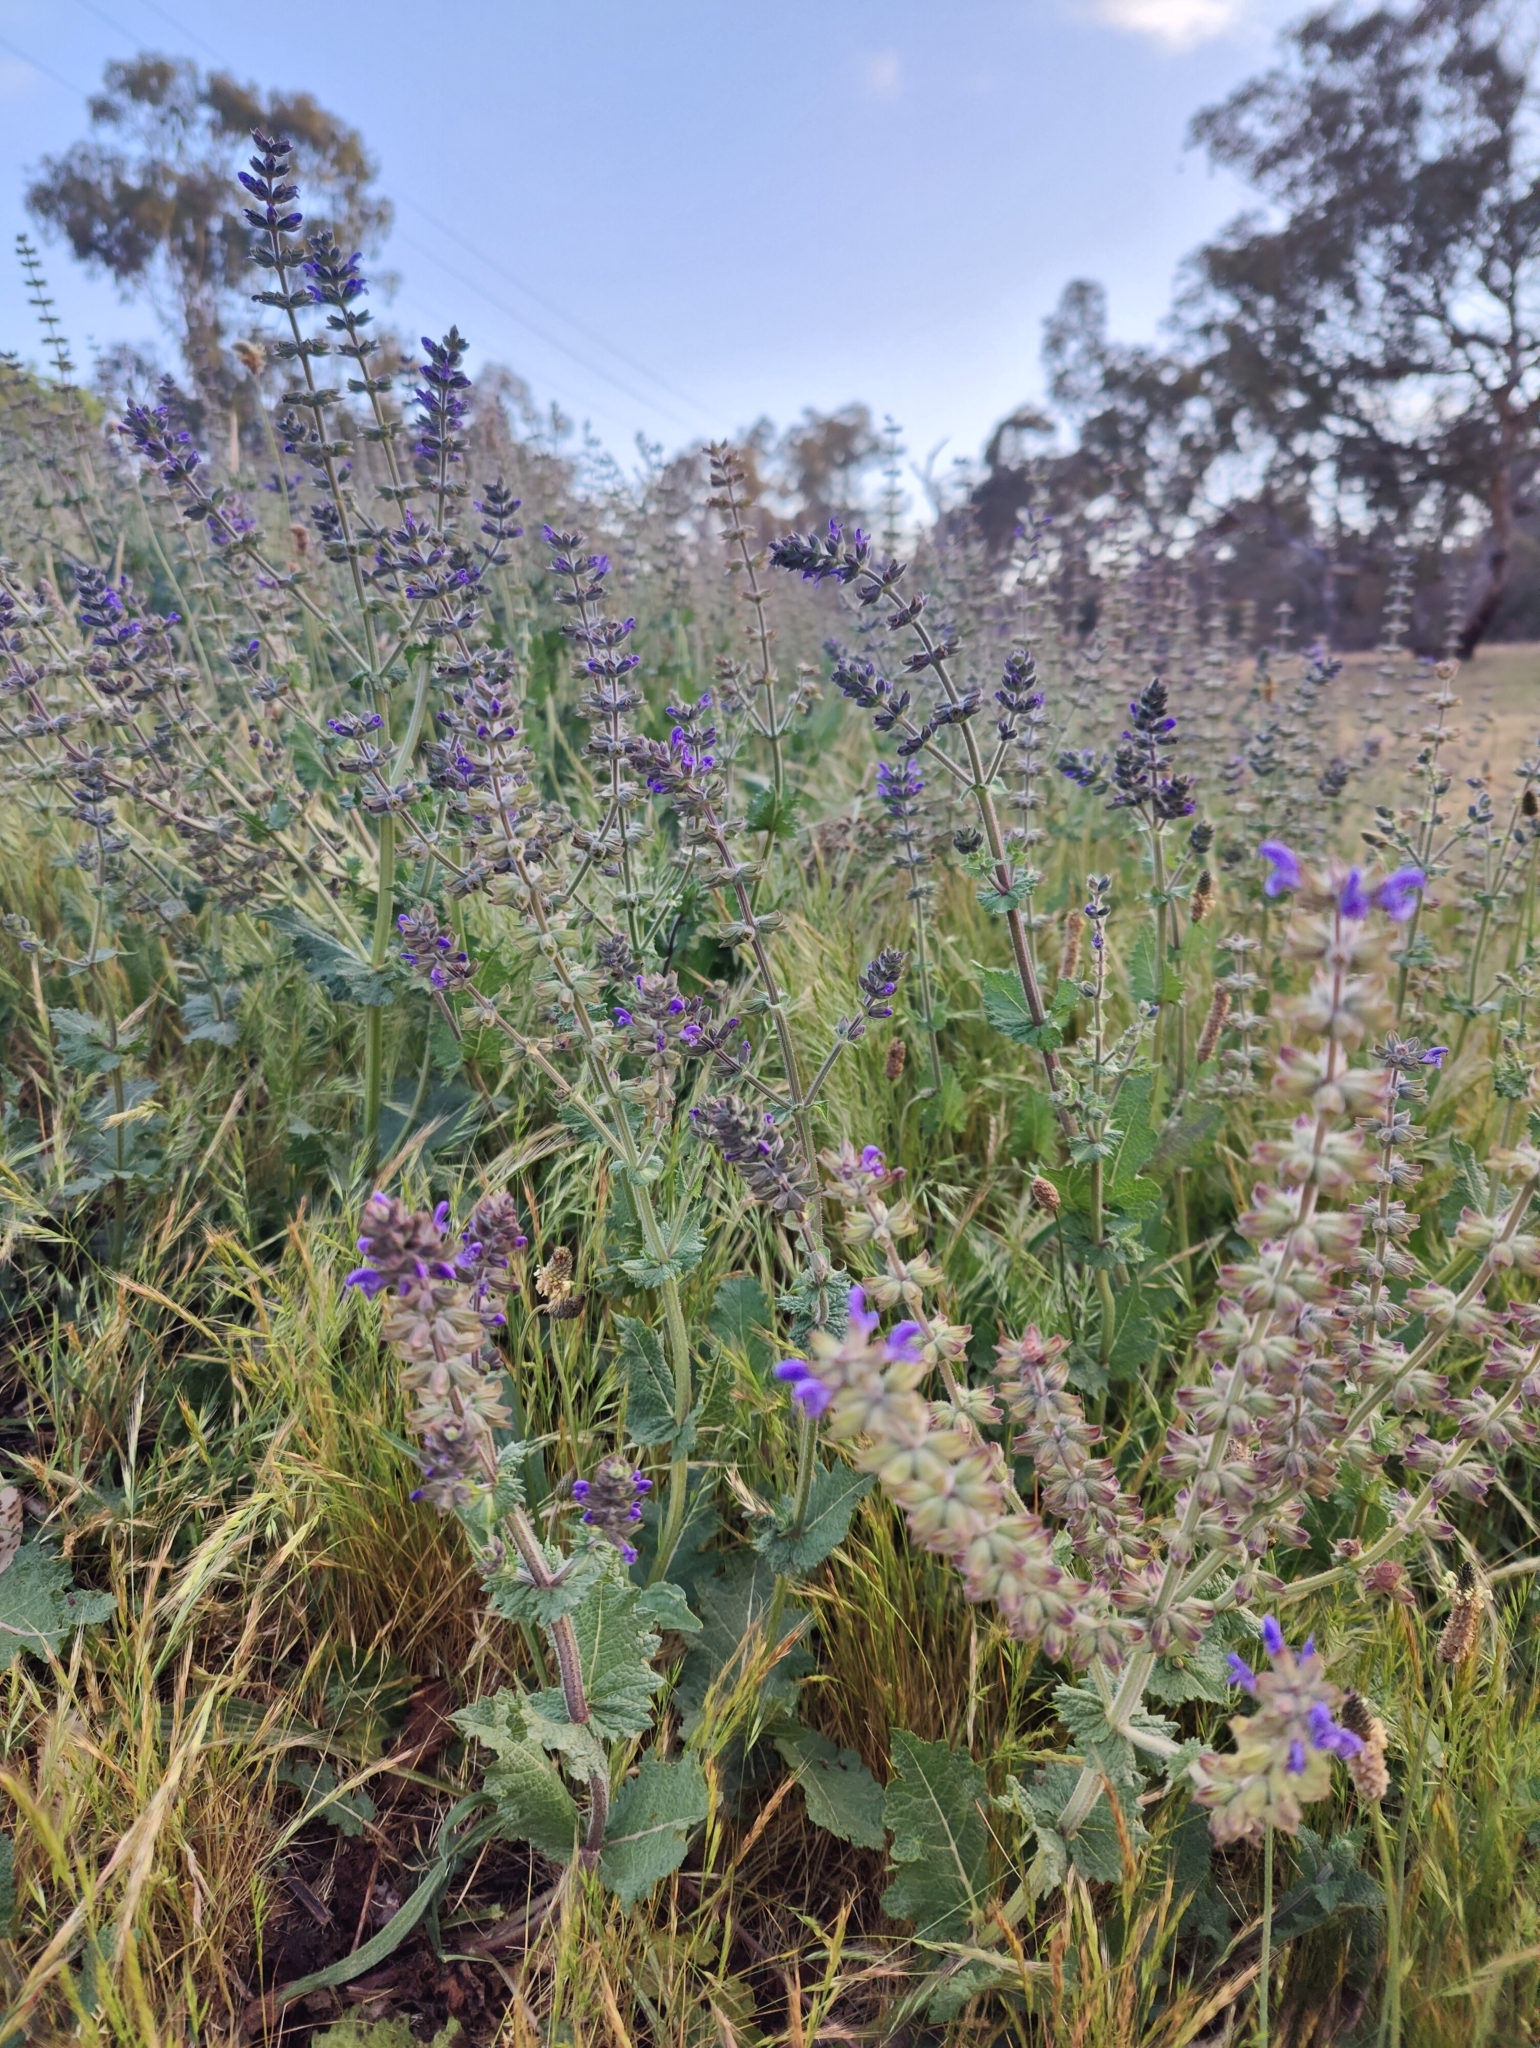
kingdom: Plantae
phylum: Tracheophyta
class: Magnoliopsida
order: Lamiales
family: Lamiaceae
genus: Salvia
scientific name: Salvia verbenaca
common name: Wild clary
